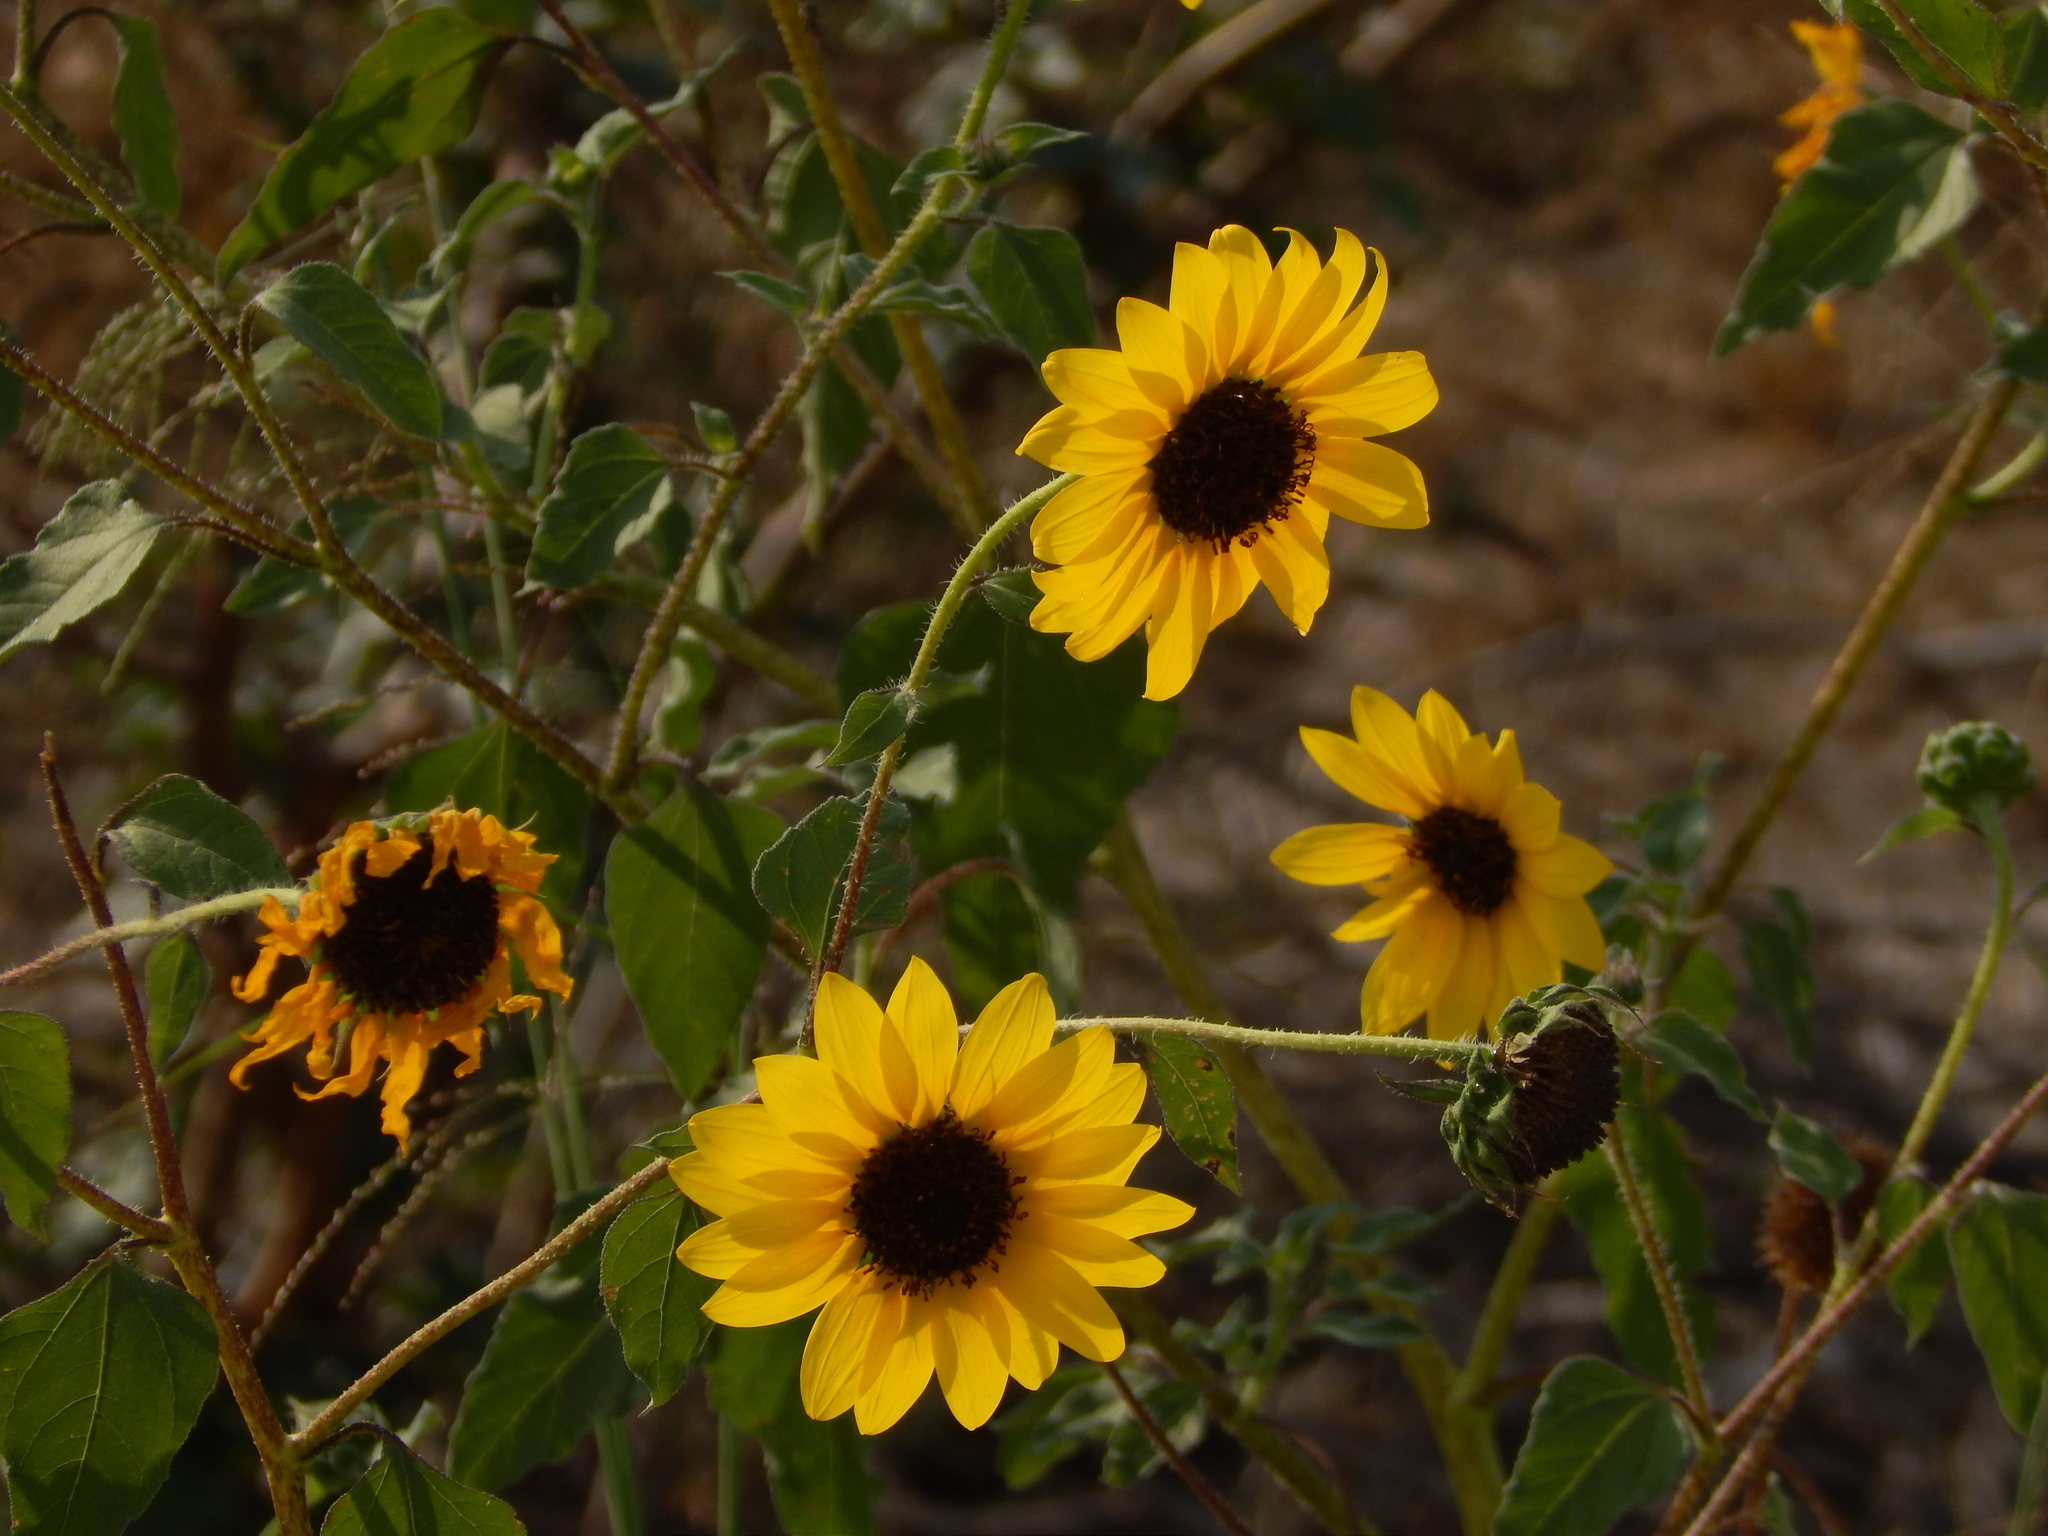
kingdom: Plantae
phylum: Tracheophyta
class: Magnoliopsida
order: Asterales
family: Asteraceae
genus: Helianthus
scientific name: Helianthus annuus
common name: Sunflower
